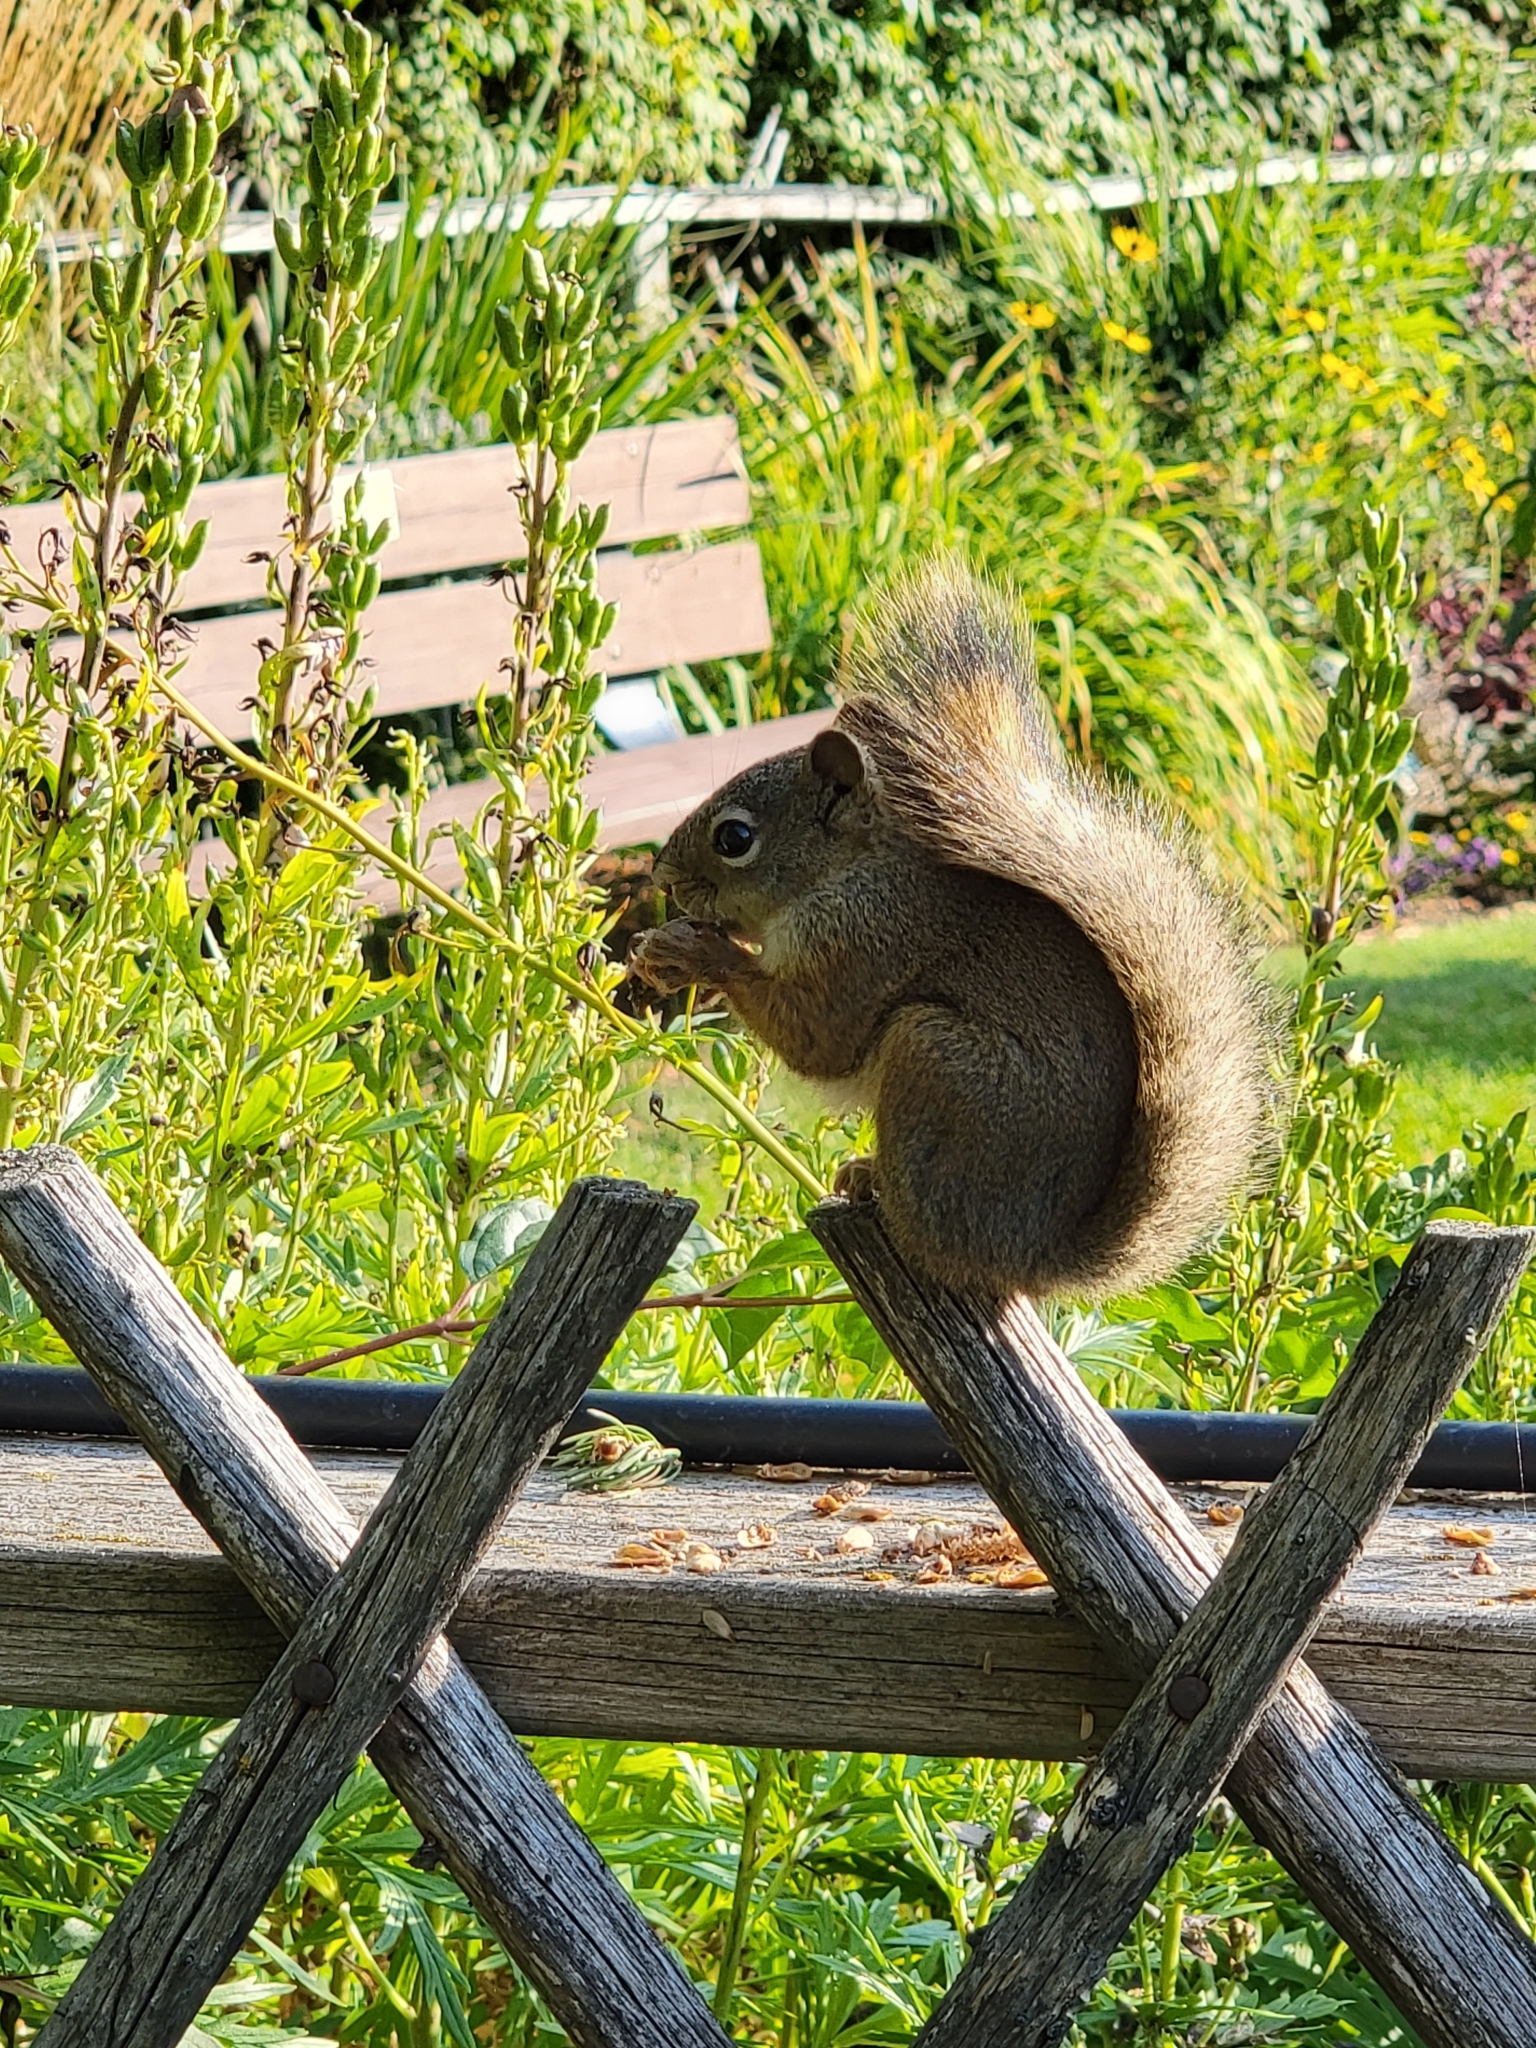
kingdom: Animalia
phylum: Chordata
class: Mammalia
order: Rodentia
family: Sciuridae
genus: Tamiasciurus
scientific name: Tamiasciurus hudsonicus
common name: Red squirrel
